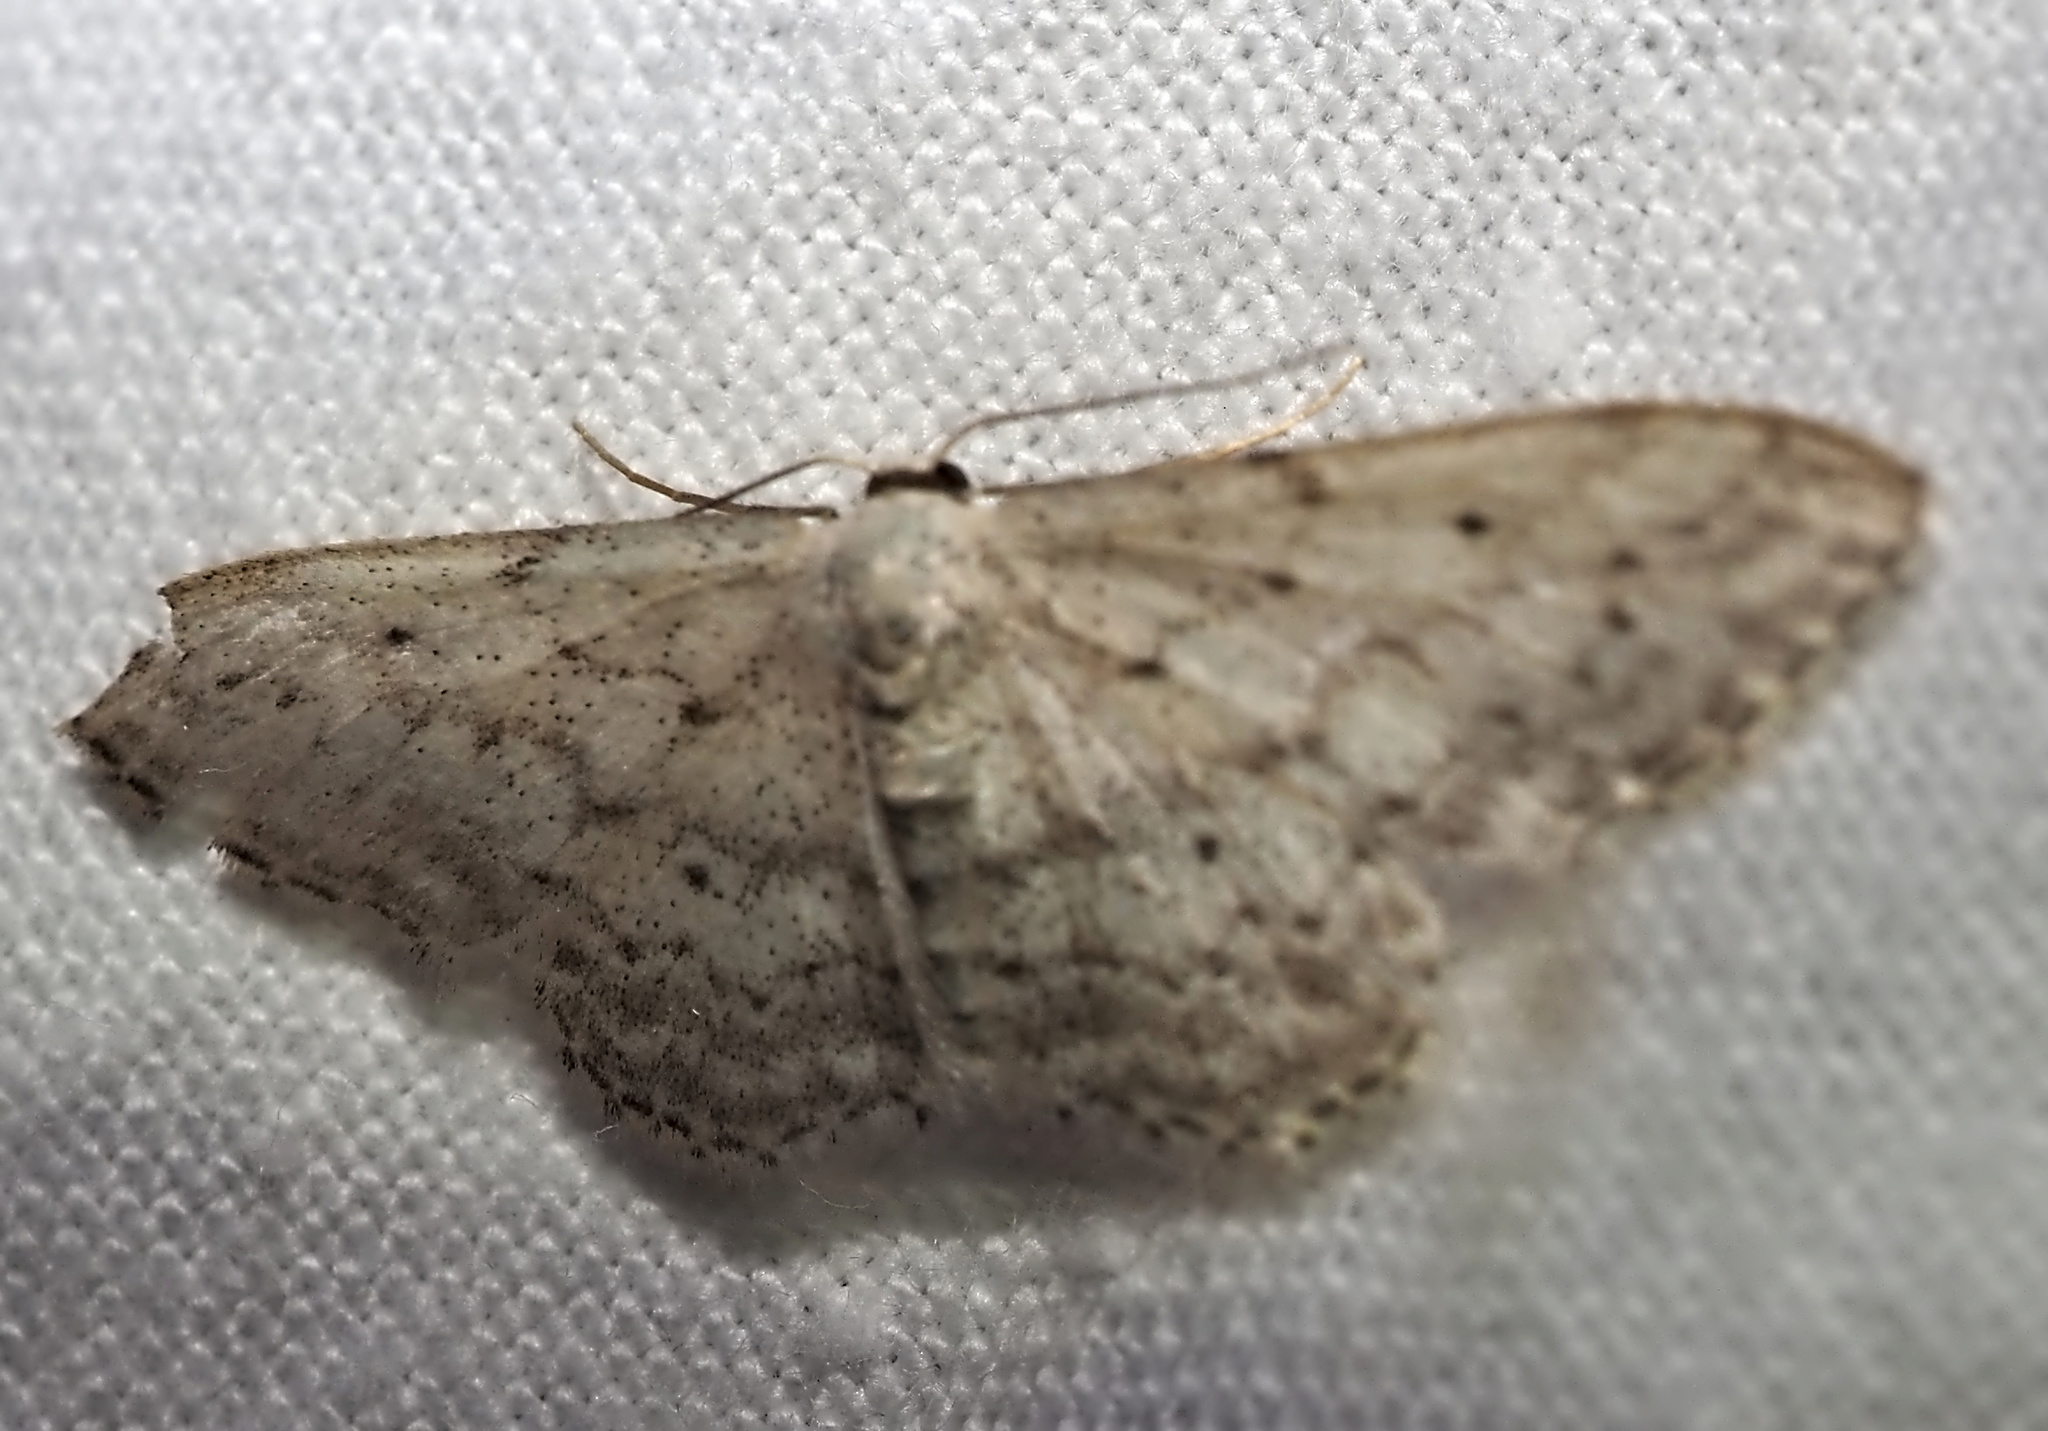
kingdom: Animalia
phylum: Arthropoda
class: Insecta
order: Lepidoptera
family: Geometridae
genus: Idaea
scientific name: Idaea seriata
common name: Small dusty wave
